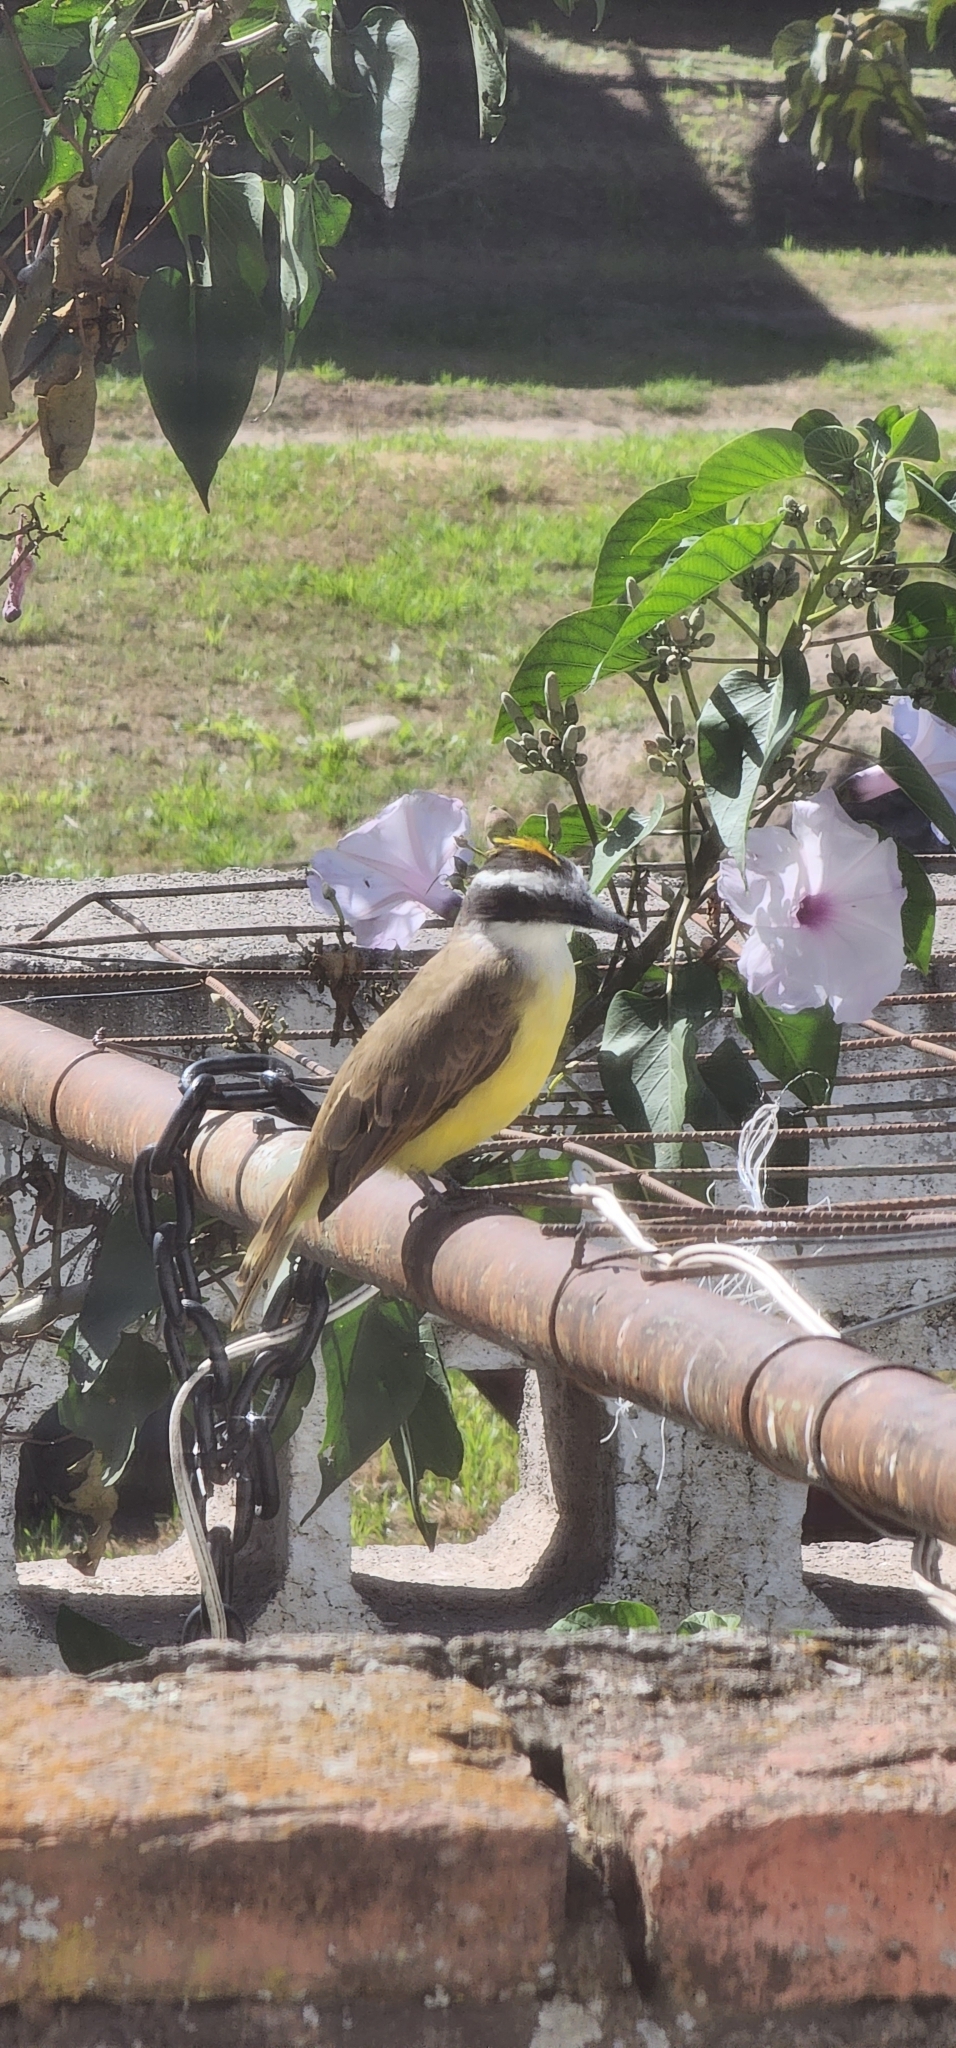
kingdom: Animalia
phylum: Chordata
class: Aves
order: Passeriformes
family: Tyrannidae
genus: Pitangus
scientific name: Pitangus sulphuratus
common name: Great kiskadee
